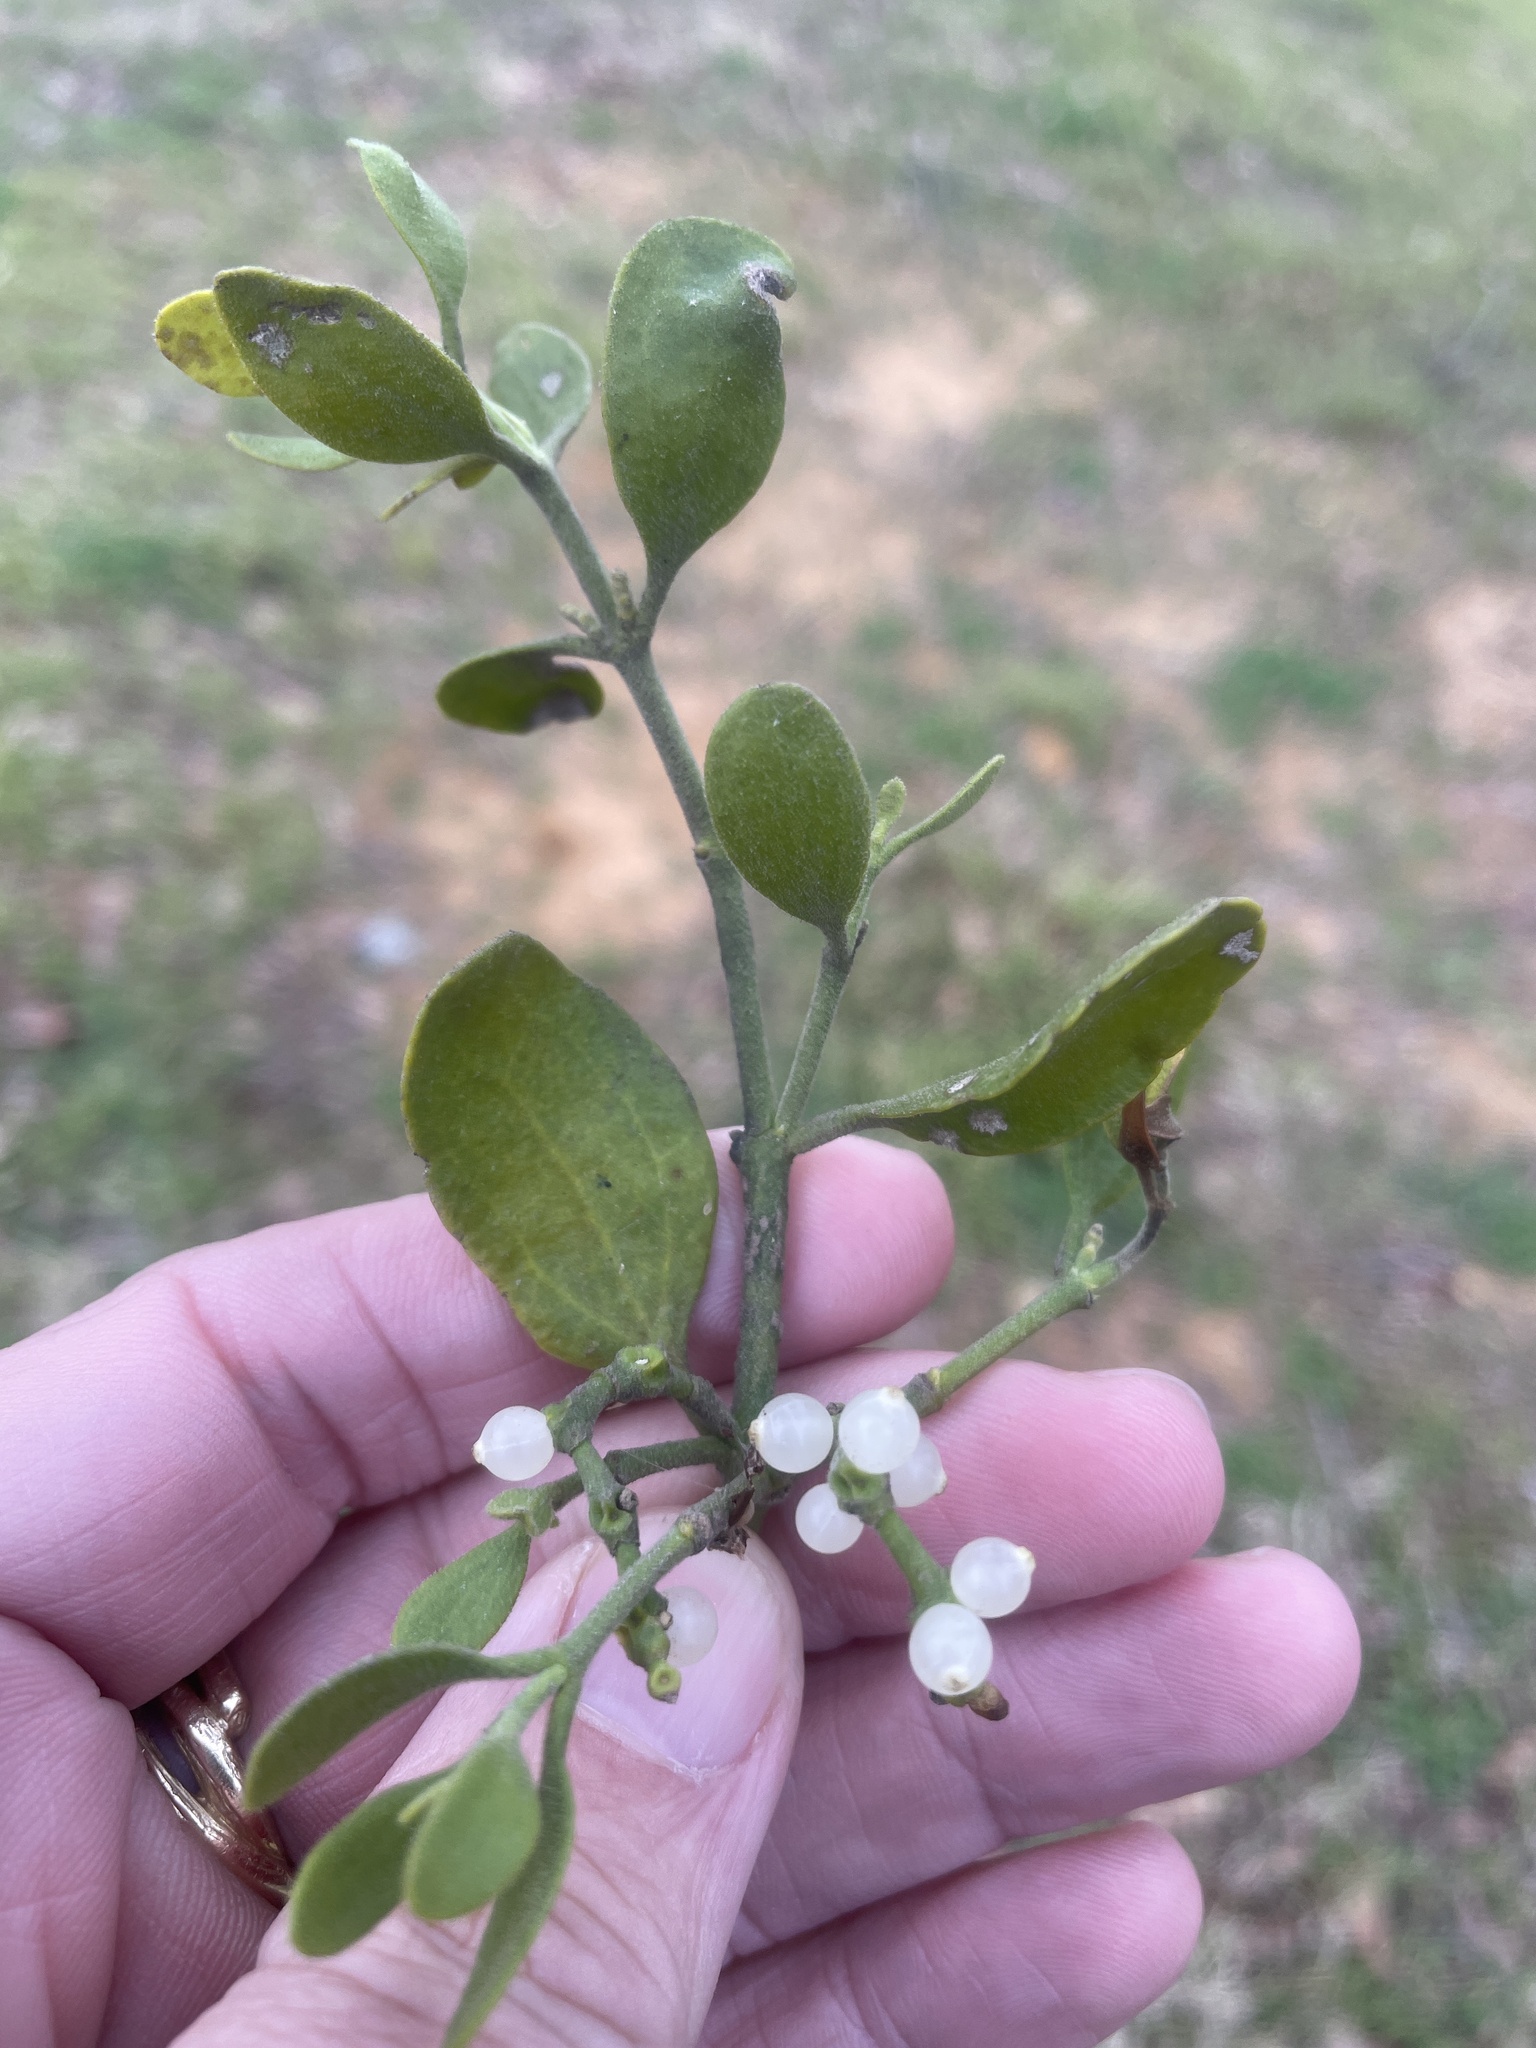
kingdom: Plantae
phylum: Tracheophyta
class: Magnoliopsida
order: Santalales
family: Viscaceae
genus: Phoradendron
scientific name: Phoradendron leucarpum
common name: Pacific mistletoe
